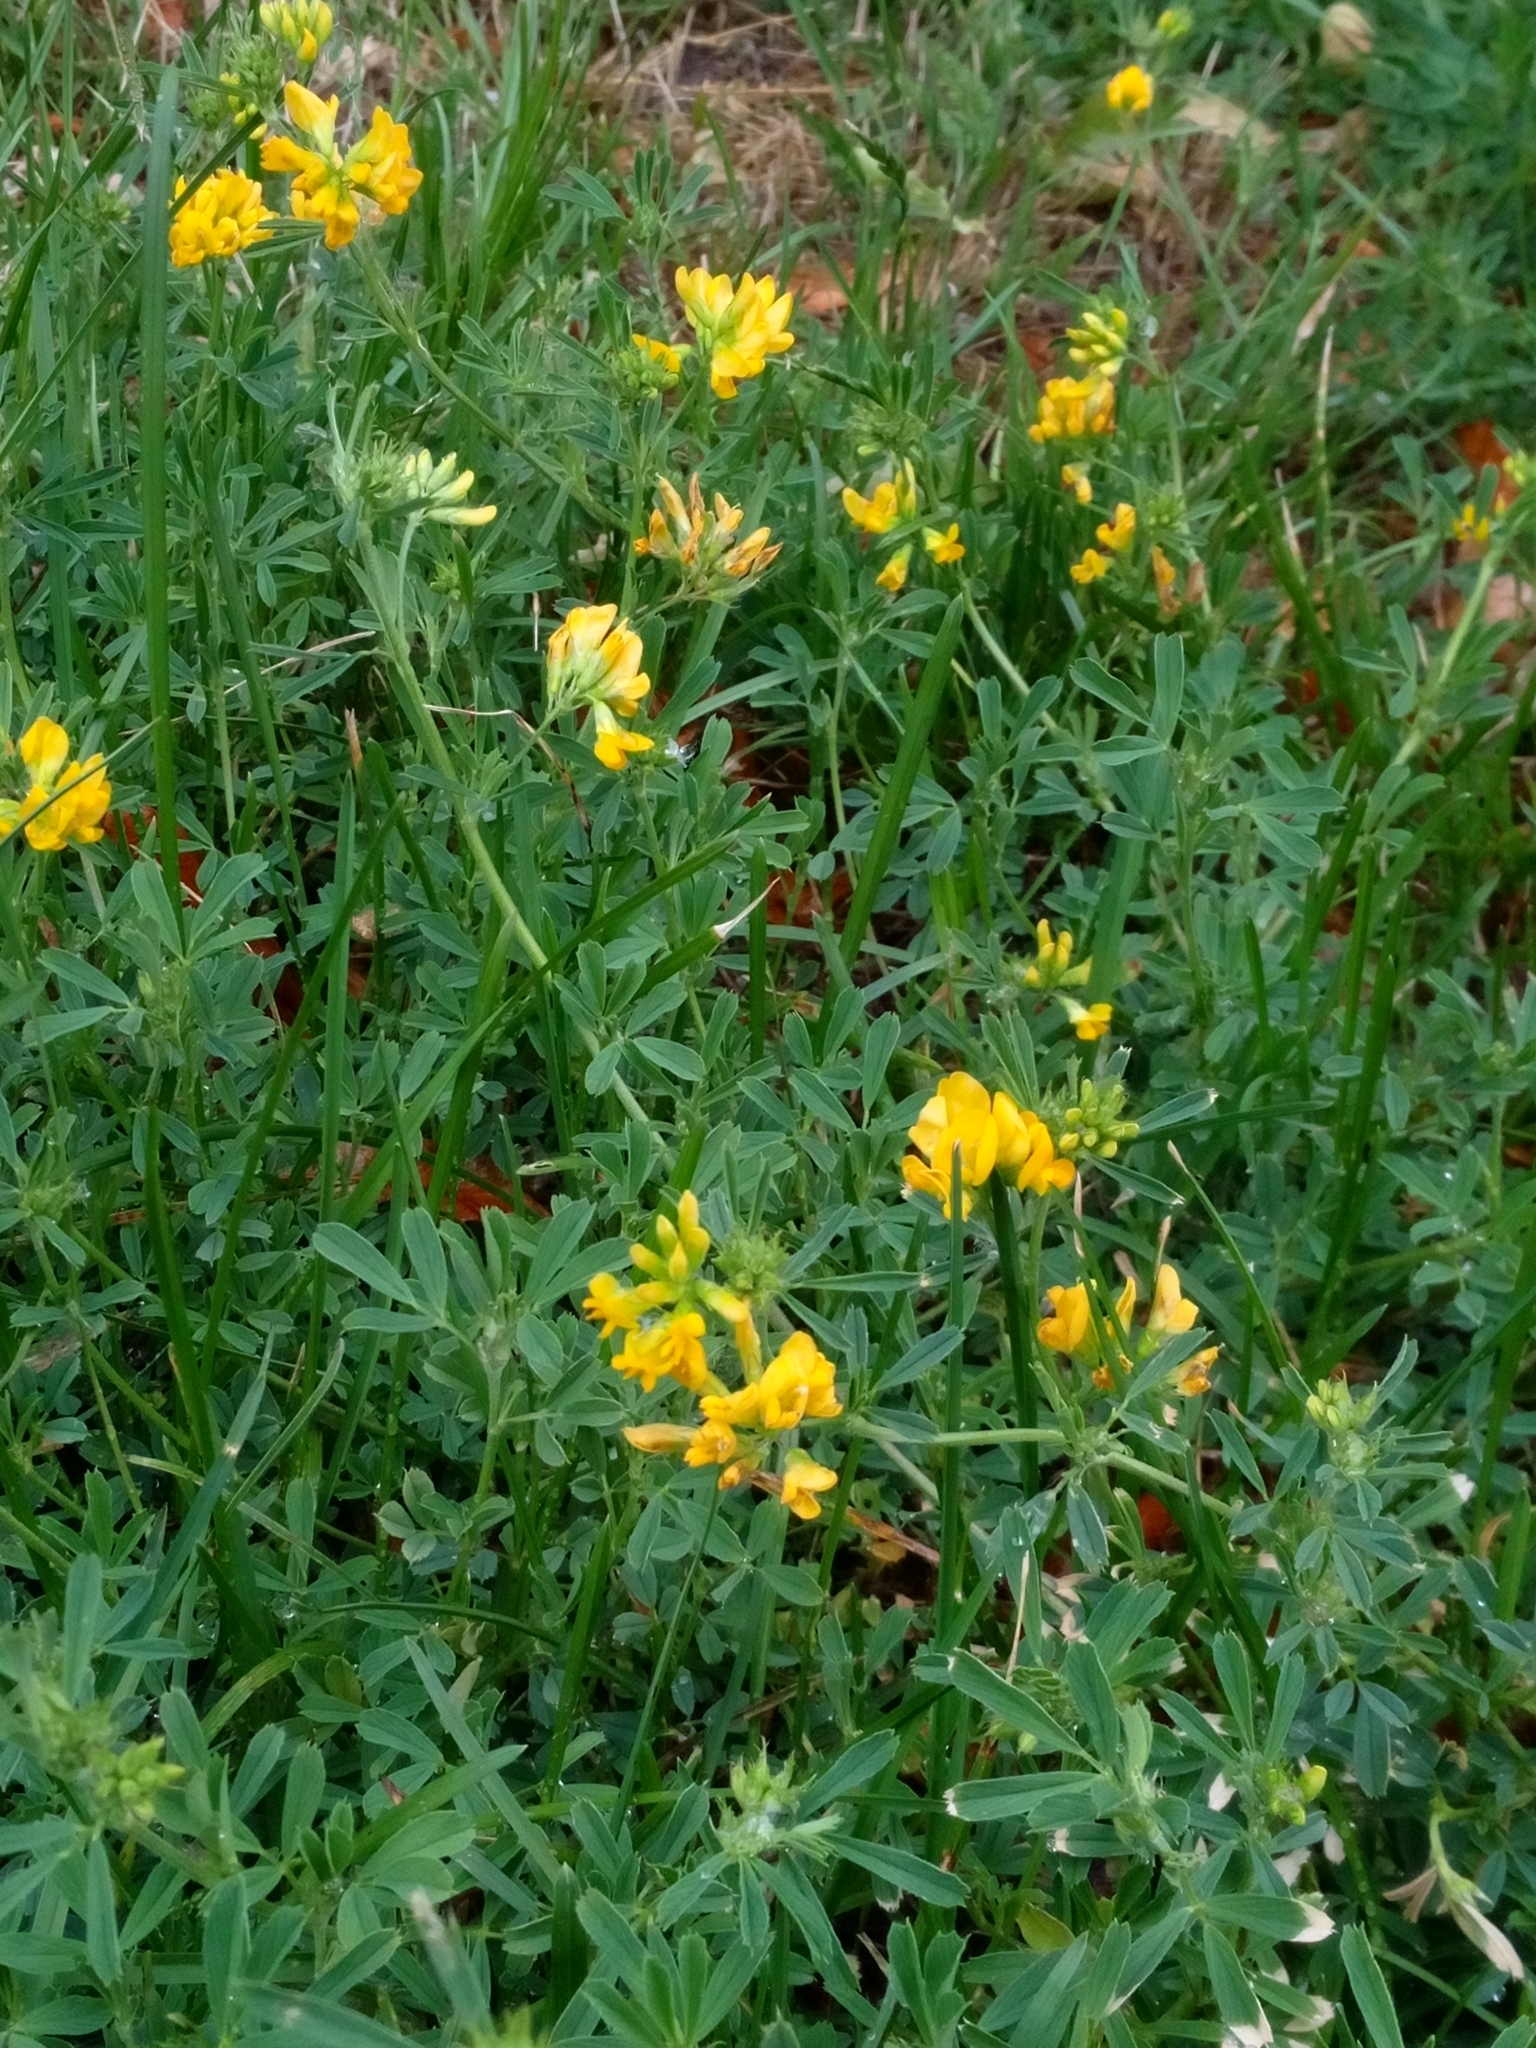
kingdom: Plantae
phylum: Tracheophyta
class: Magnoliopsida
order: Fabales
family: Fabaceae
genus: Medicago
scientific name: Medicago falcata
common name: Sickle medick
